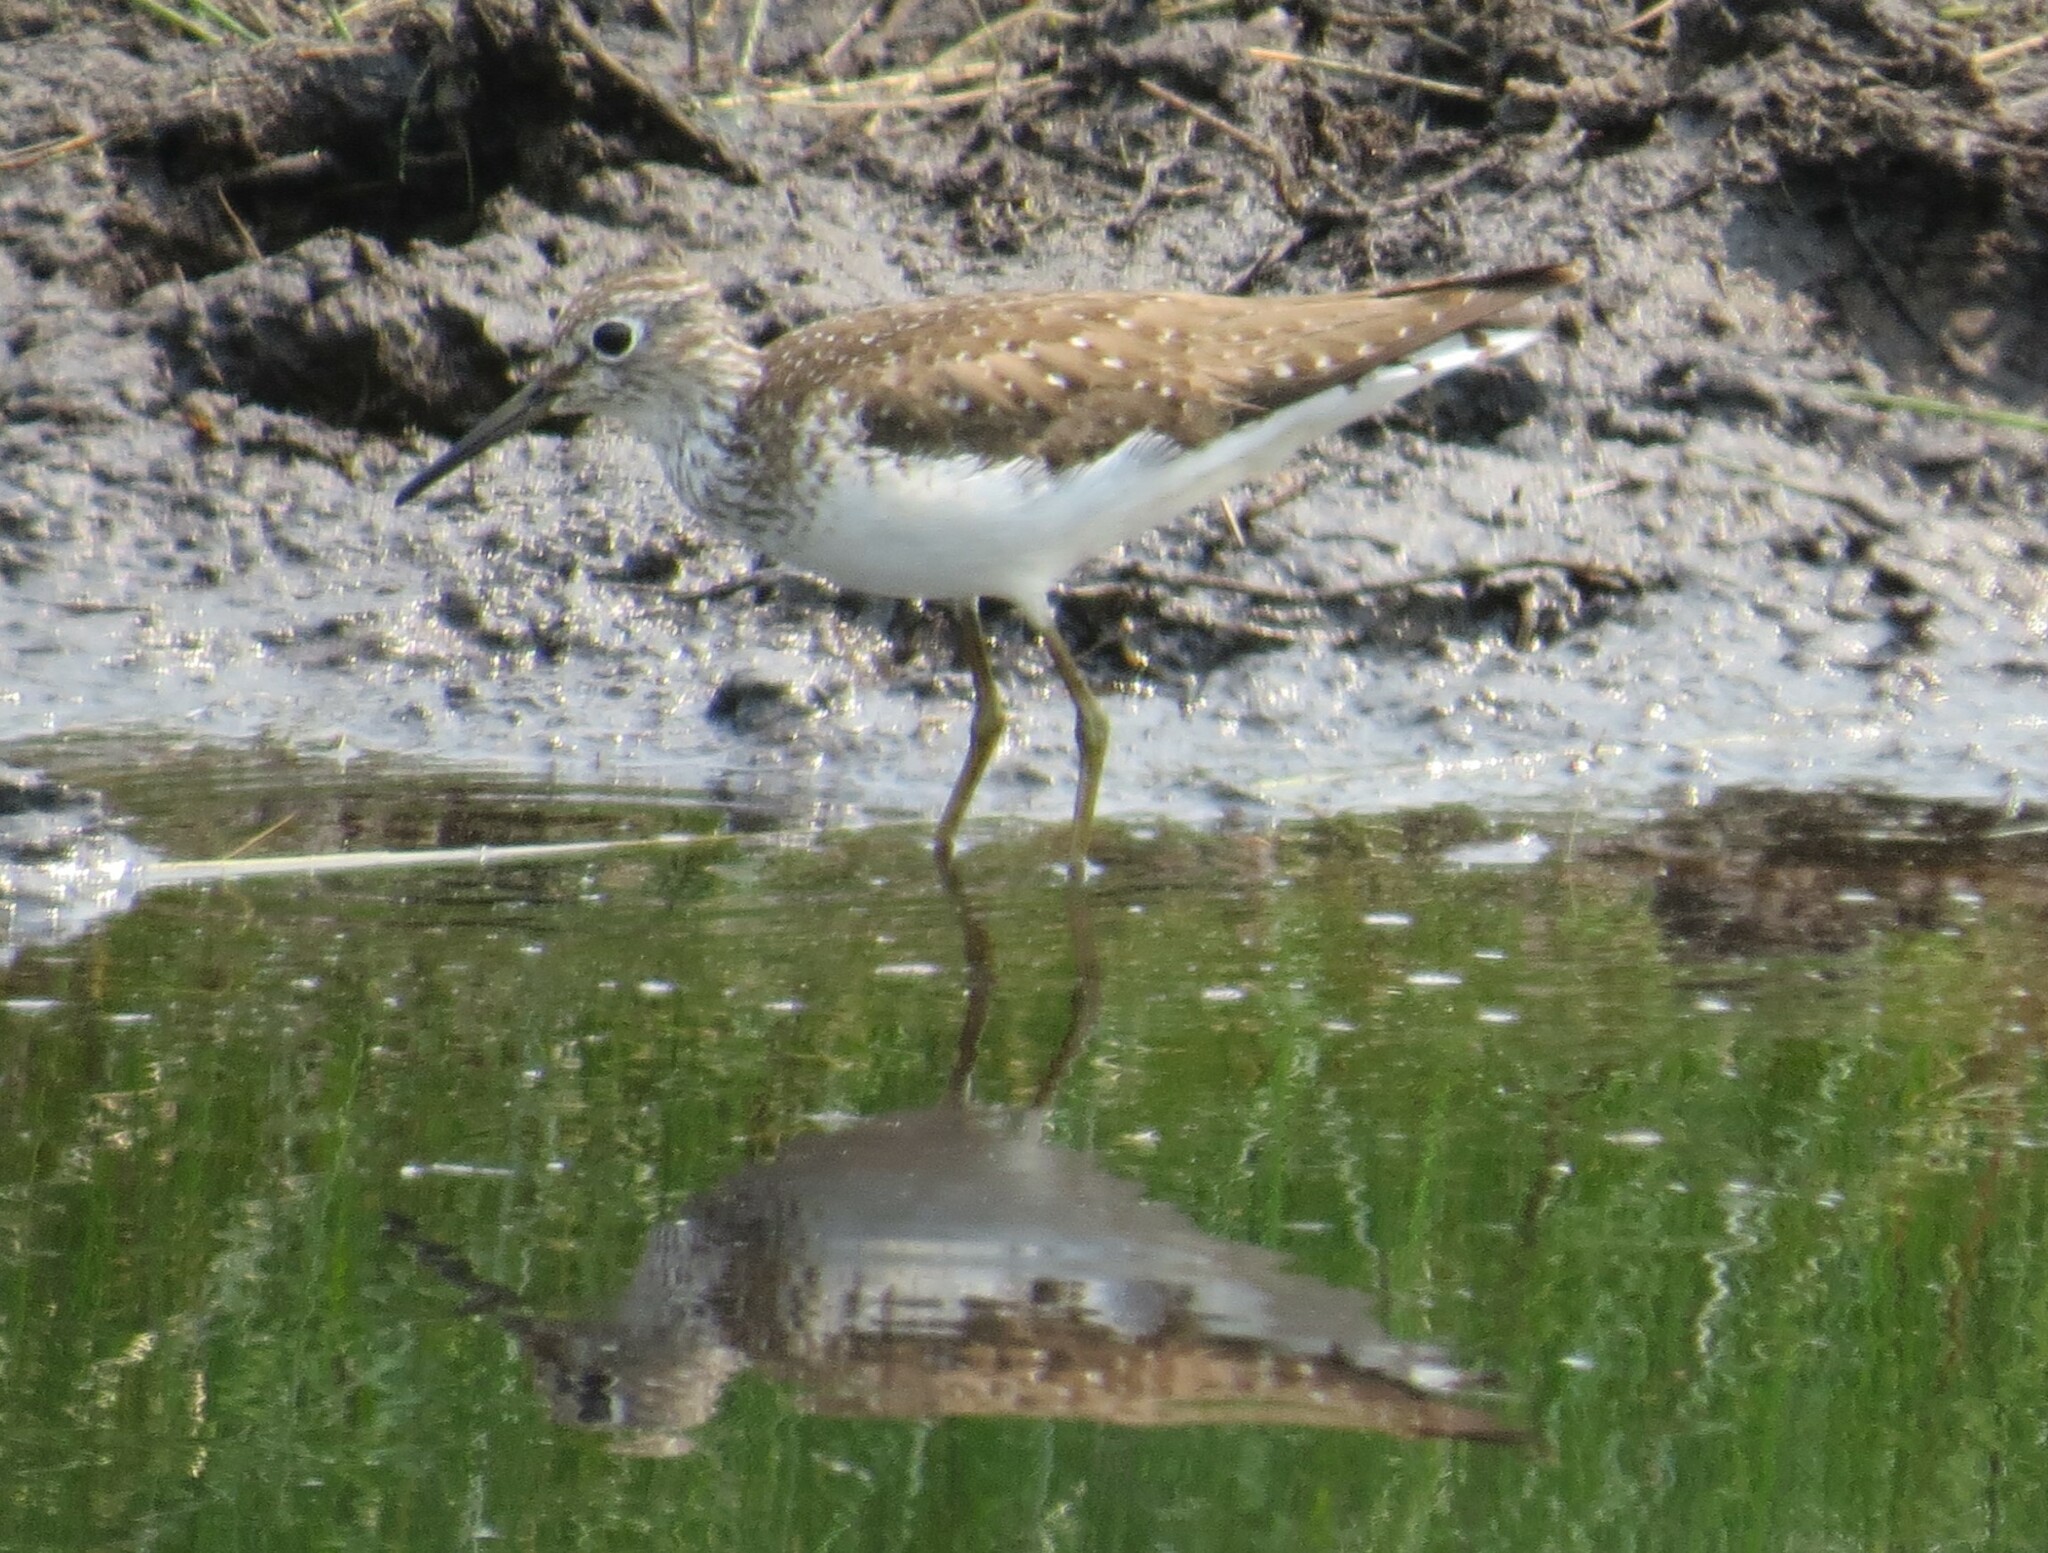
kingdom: Animalia
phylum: Chordata
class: Aves
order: Charadriiformes
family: Scolopacidae
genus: Tringa
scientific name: Tringa solitaria
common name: Solitary sandpiper
